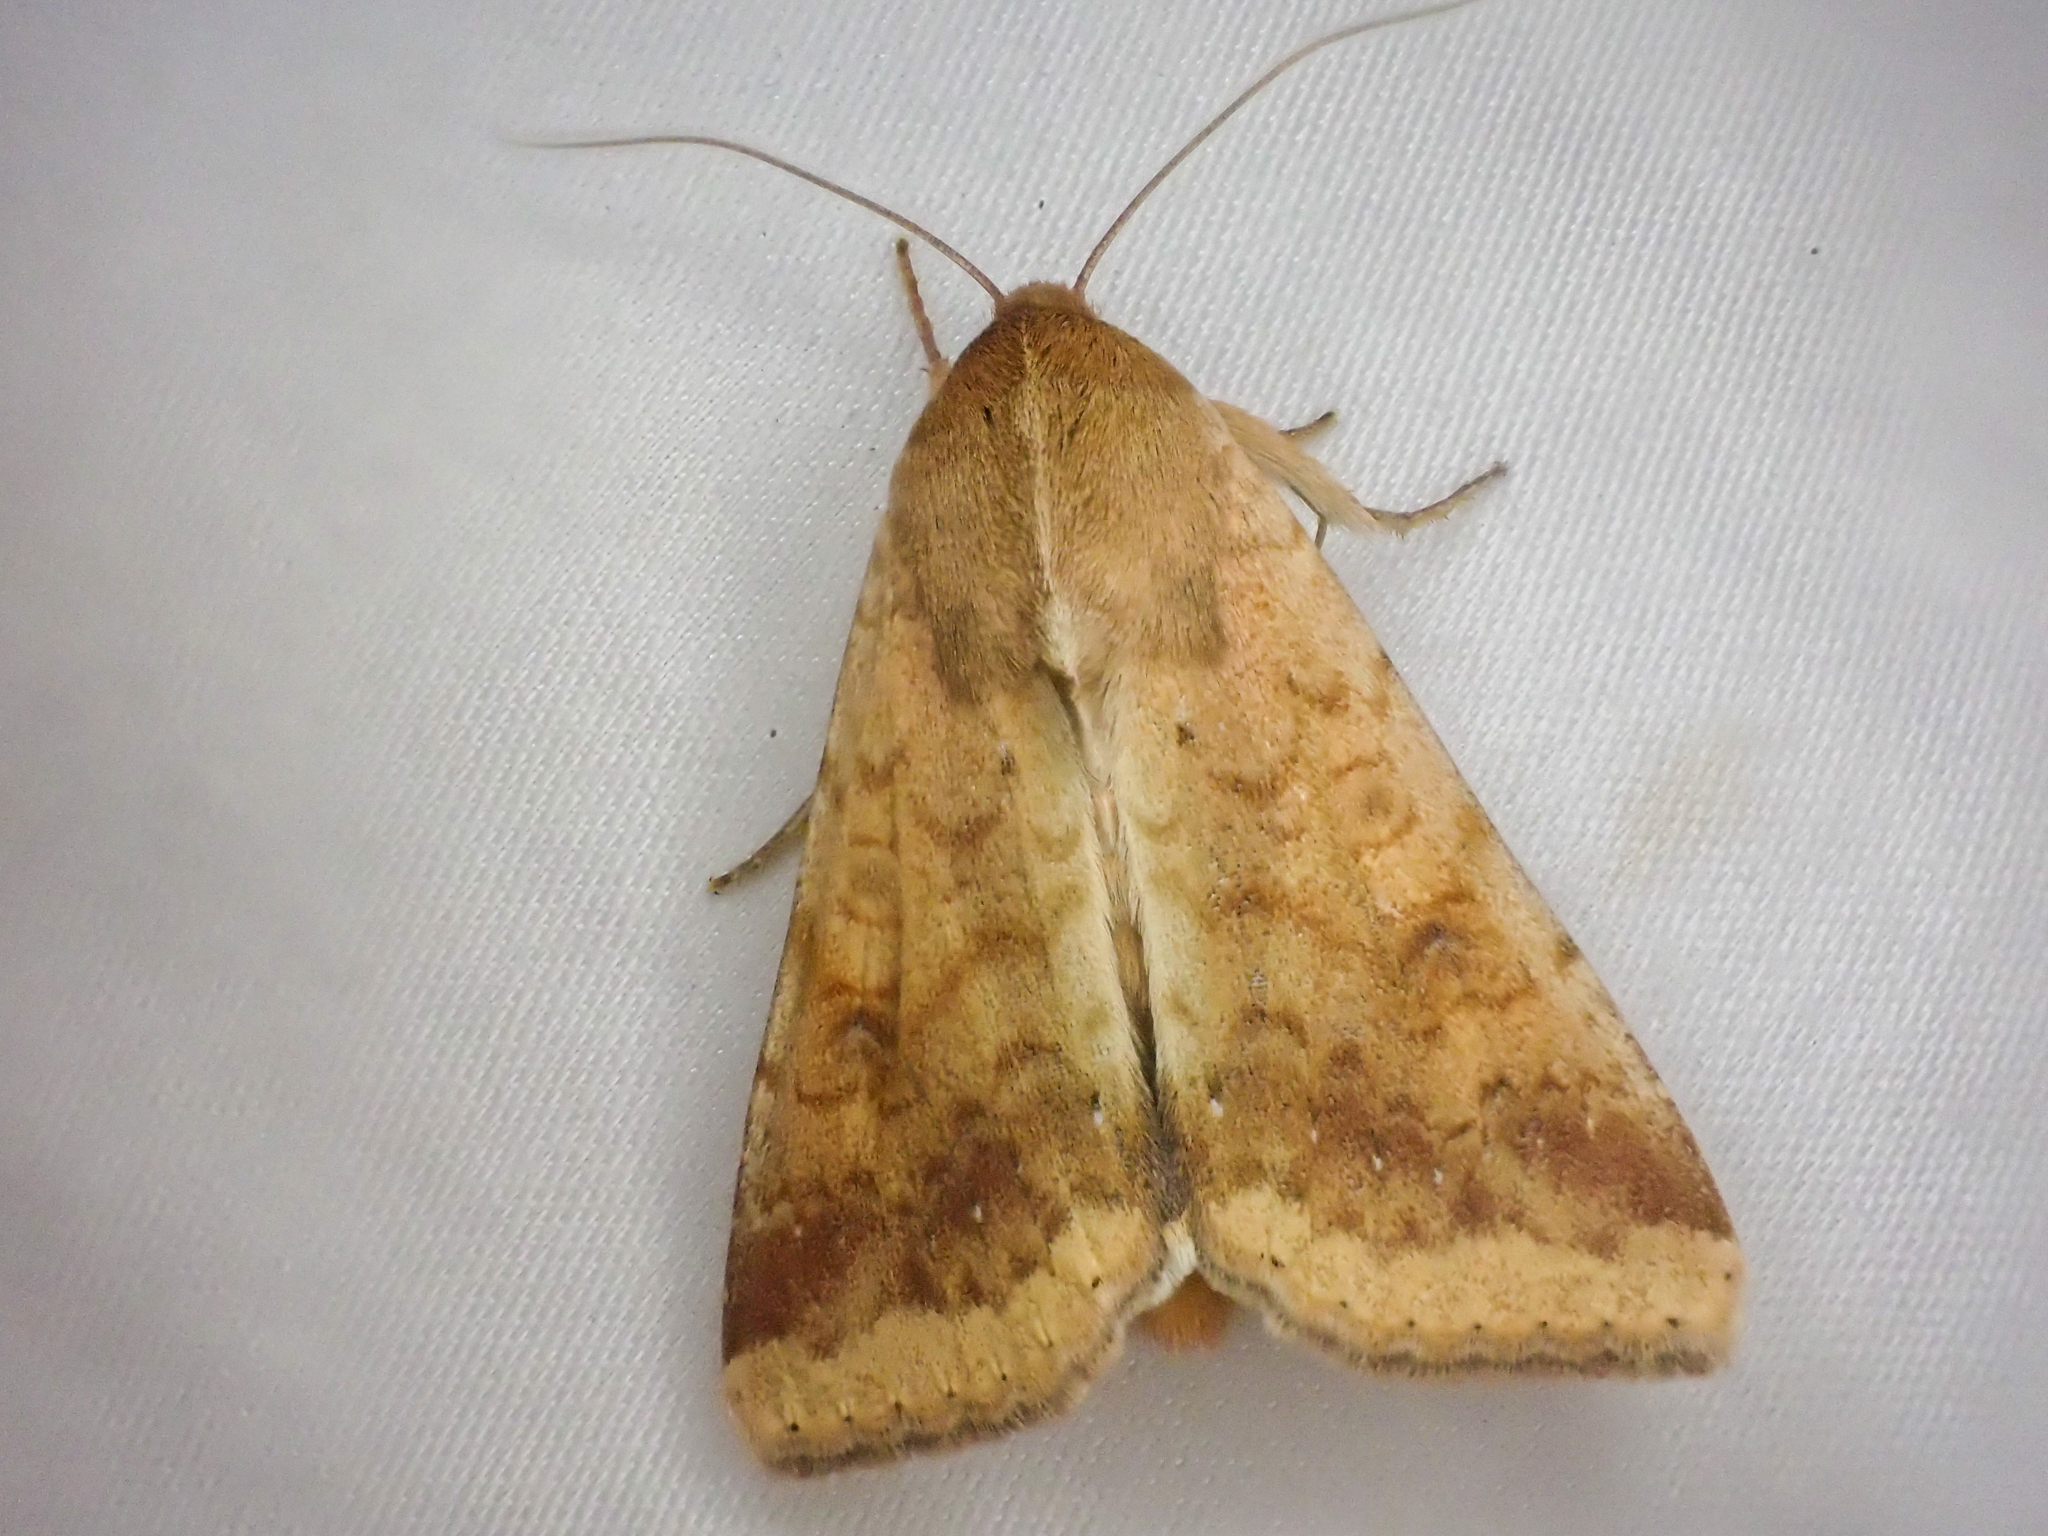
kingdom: Animalia
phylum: Arthropoda
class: Insecta
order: Lepidoptera
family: Noctuidae
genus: Helicoverpa
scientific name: Helicoverpa zea
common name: Bollworm
